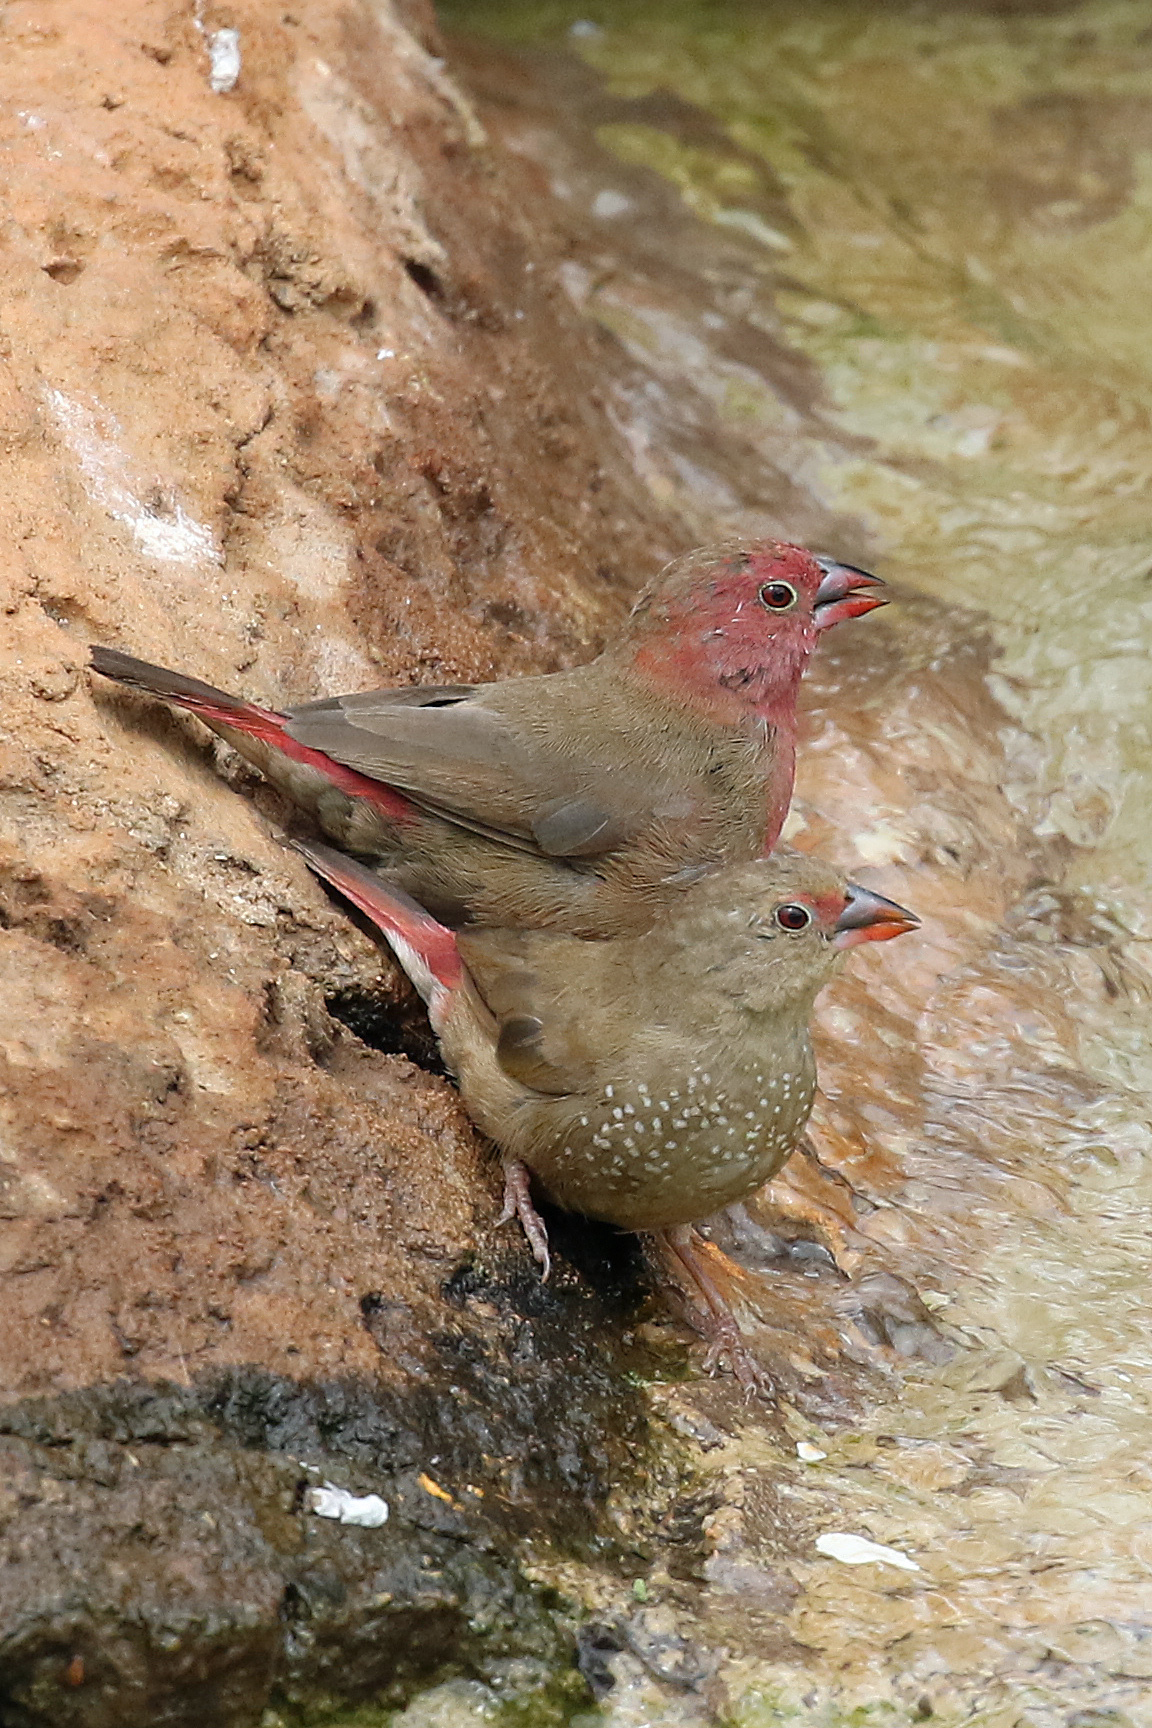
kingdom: Animalia
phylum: Chordata
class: Aves
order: Passeriformes
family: Estrildidae
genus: Lagonosticta
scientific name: Lagonosticta senegala
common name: Red-billed firefinch
